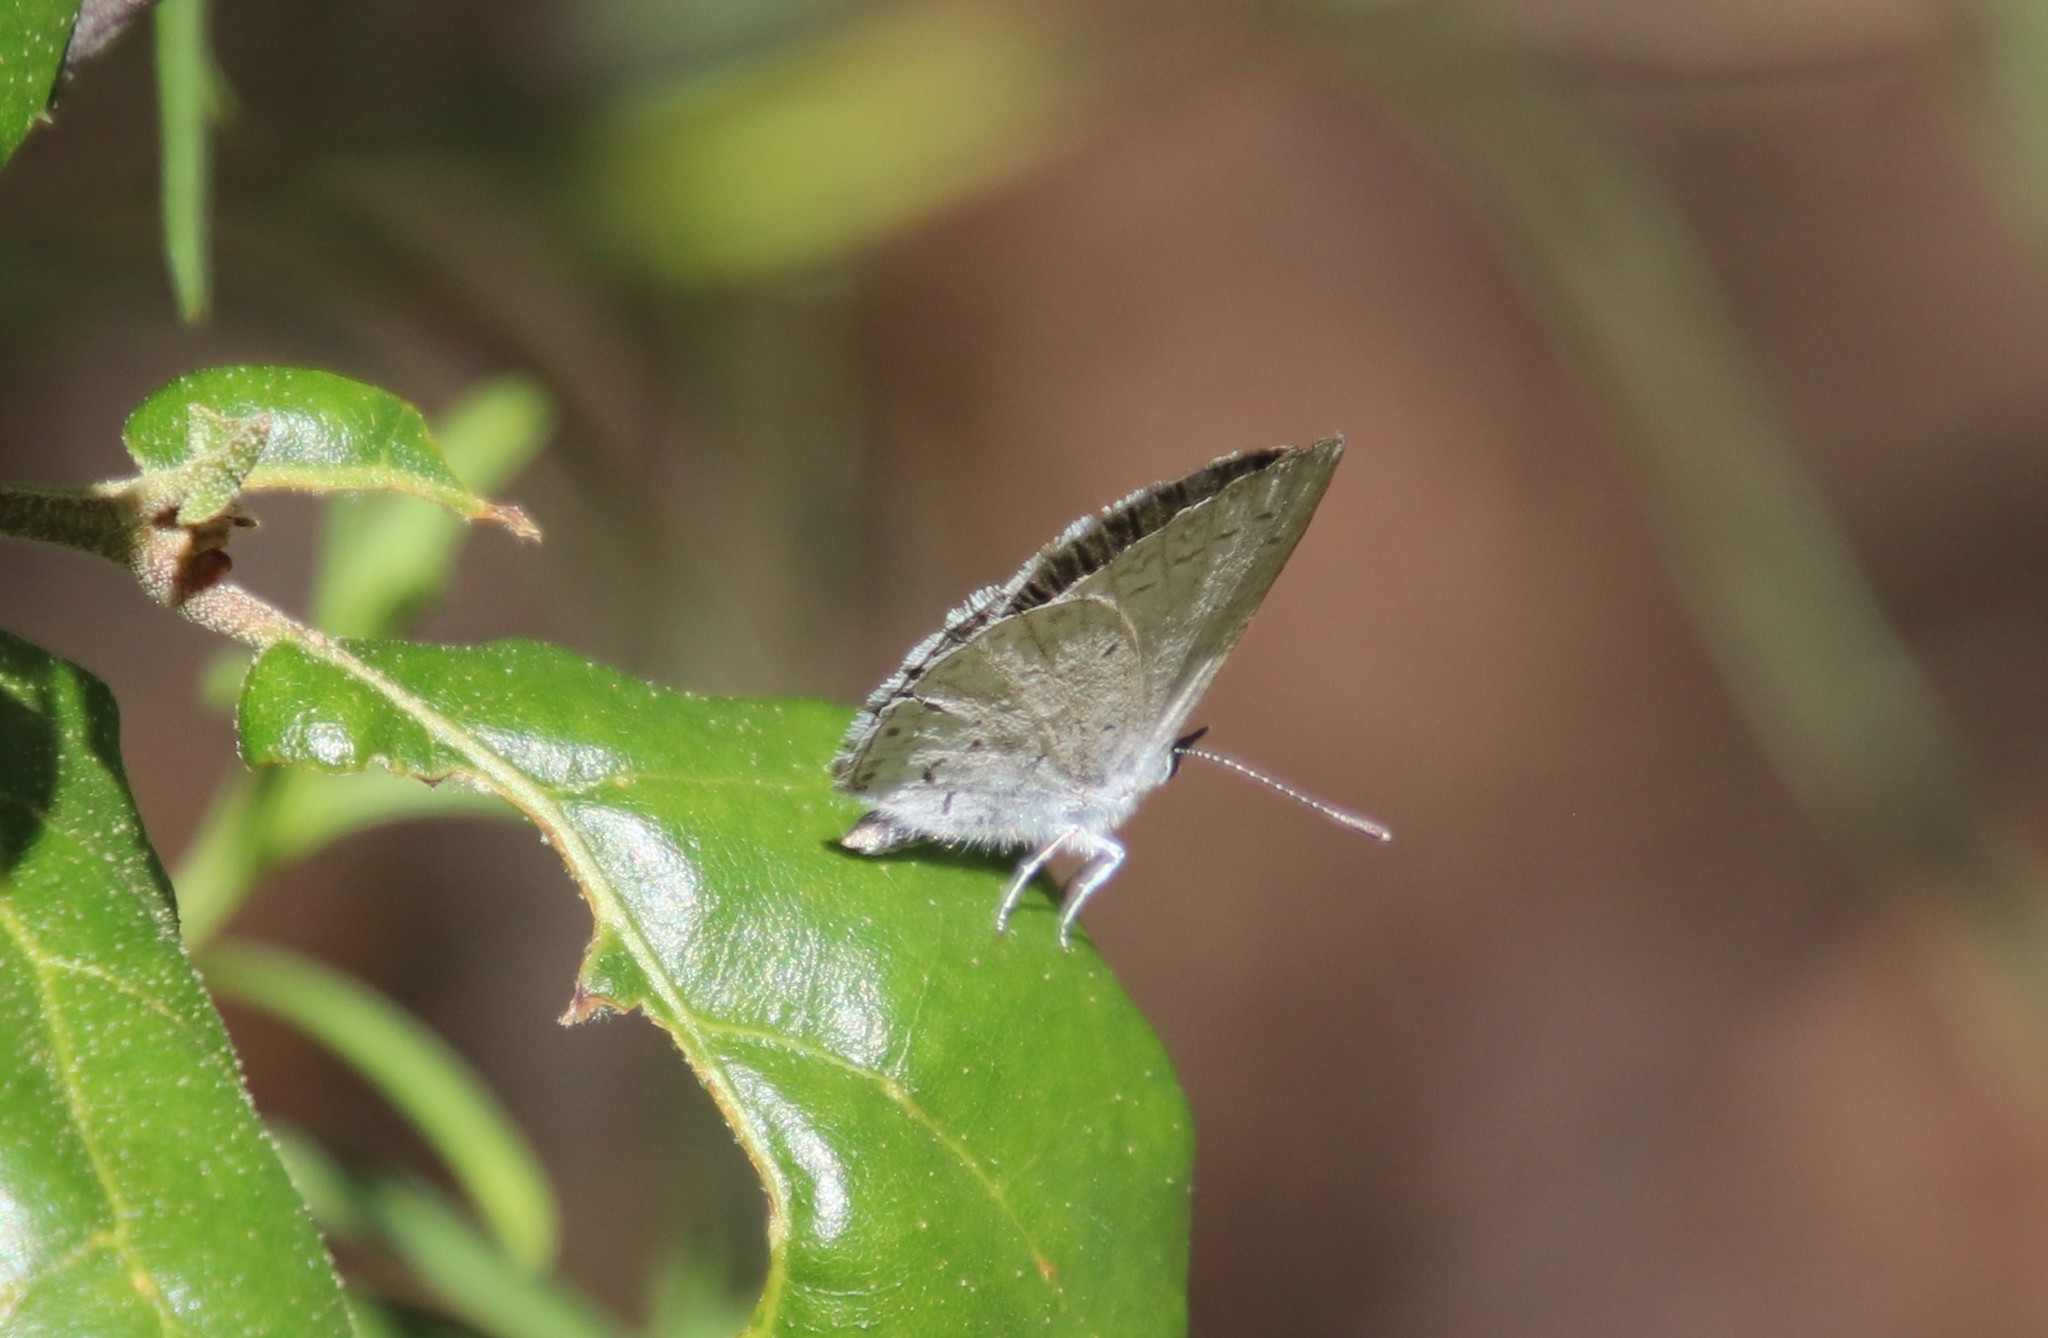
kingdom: Animalia
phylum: Arthropoda
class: Insecta
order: Lepidoptera
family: Lycaenidae
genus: Celastrina
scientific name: Celastrina ladon
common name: Spring azure
